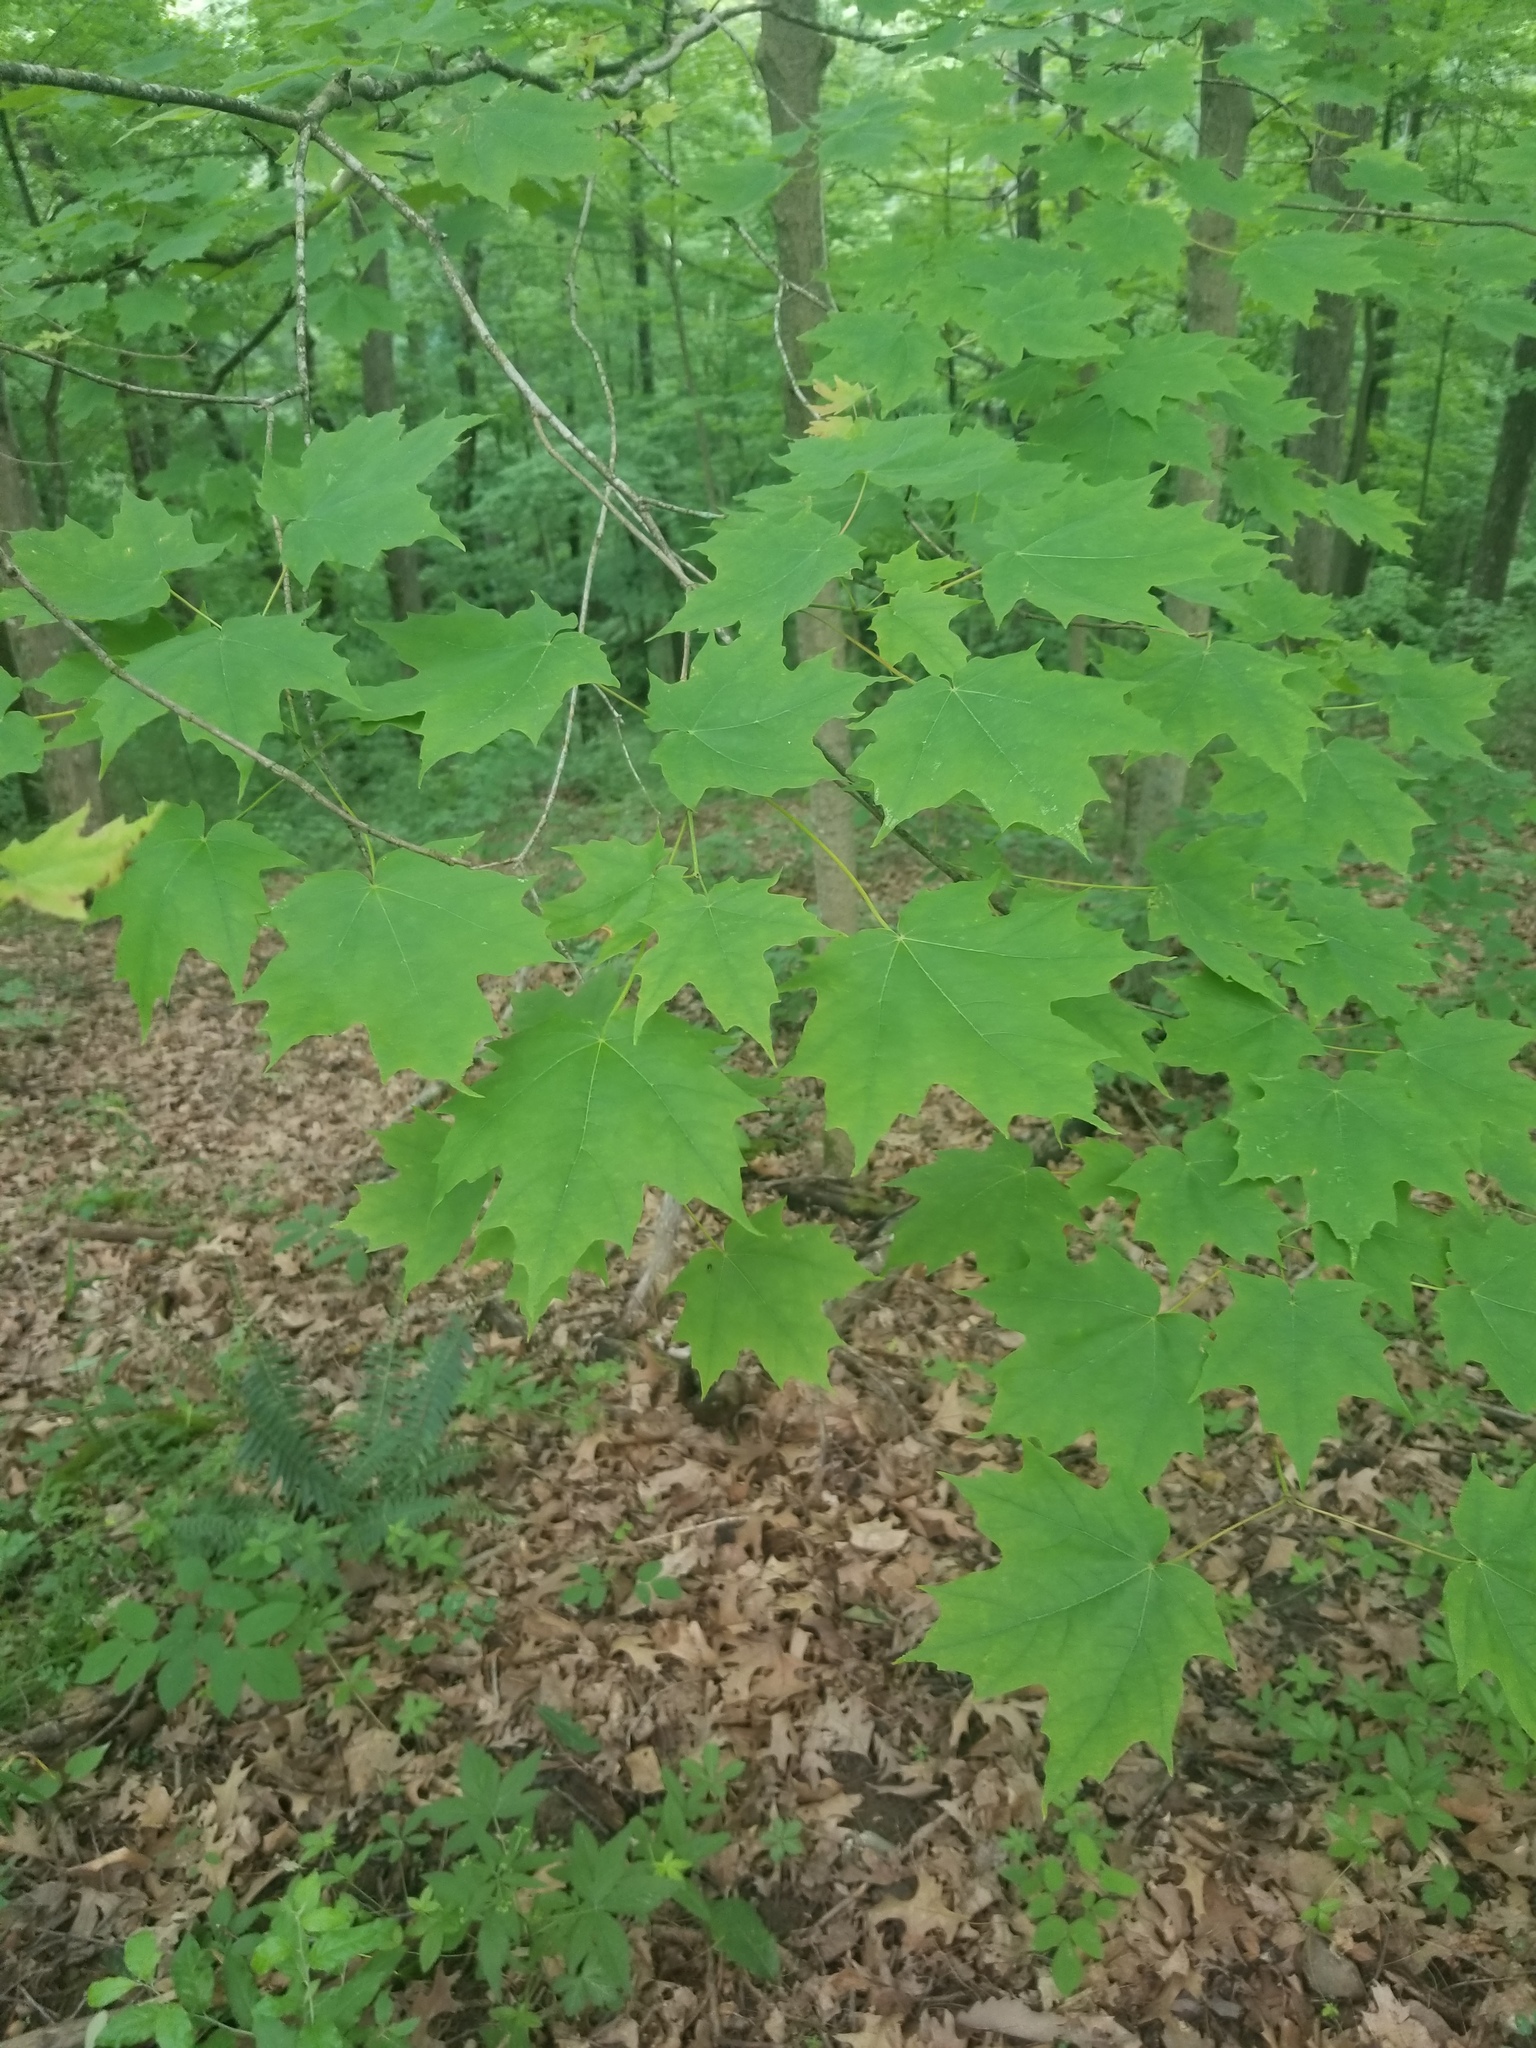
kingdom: Plantae
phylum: Tracheophyta
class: Magnoliopsida
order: Sapindales
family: Sapindaceae
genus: Acer
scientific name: Acer saccharum
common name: Sugar maple
